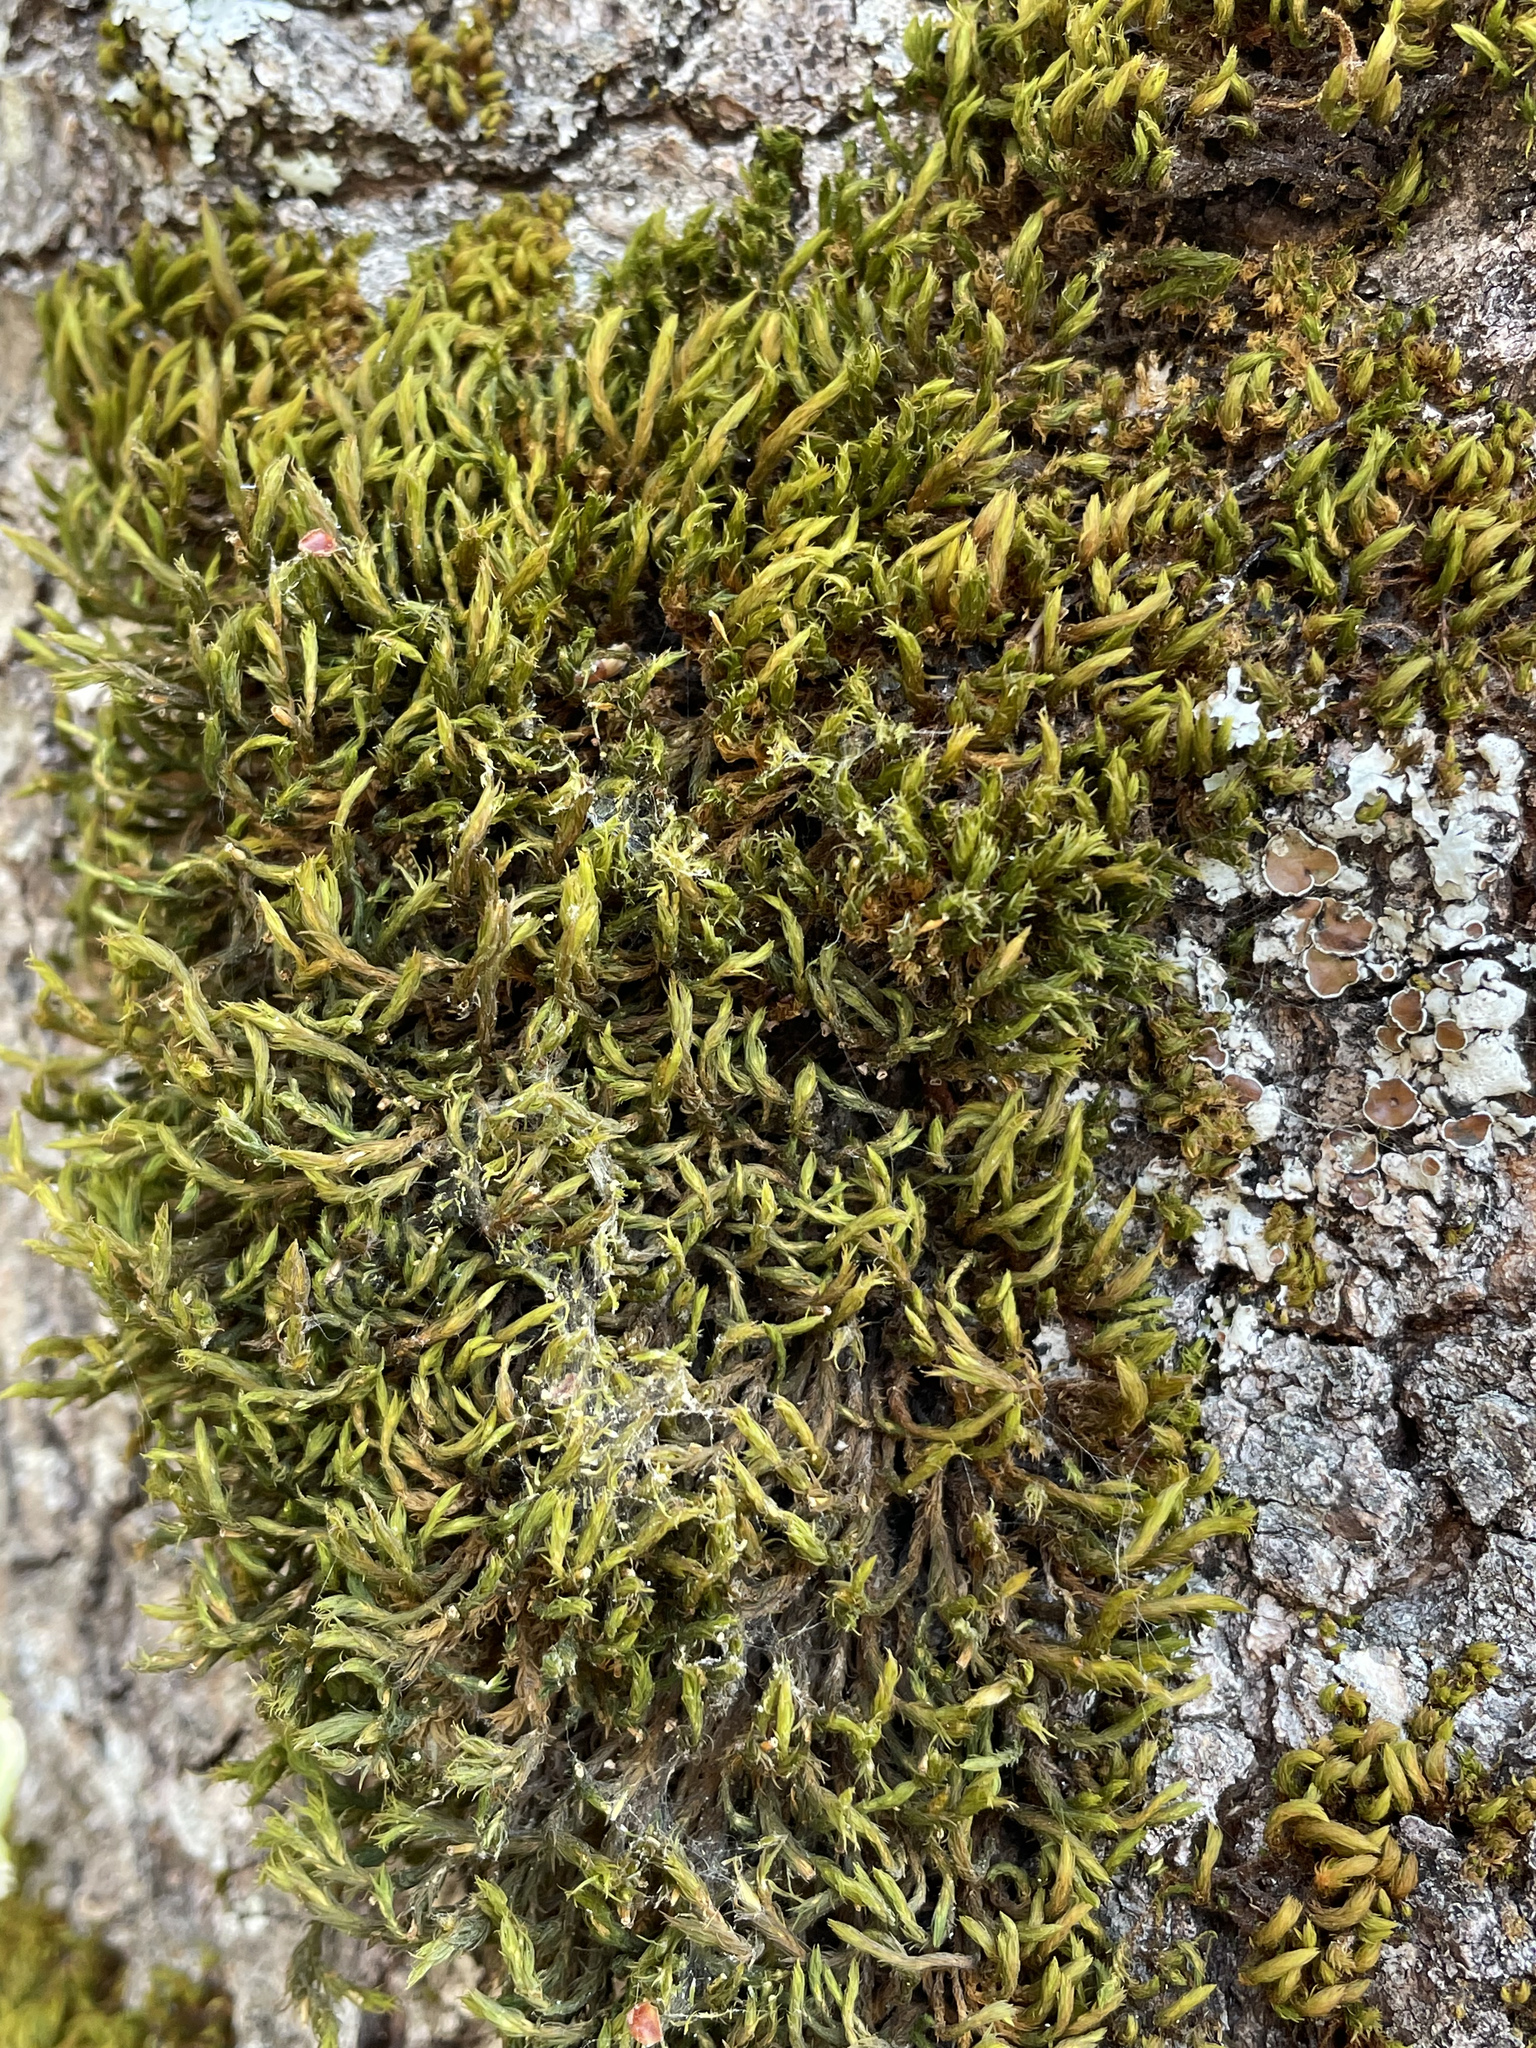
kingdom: Plantae
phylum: Bryophyta
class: Bryopsida
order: Orthotrichales
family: Orthotrichaceae
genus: Pulvigera
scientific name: Pulvigera lyellii
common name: Lyell's bristle-moss
